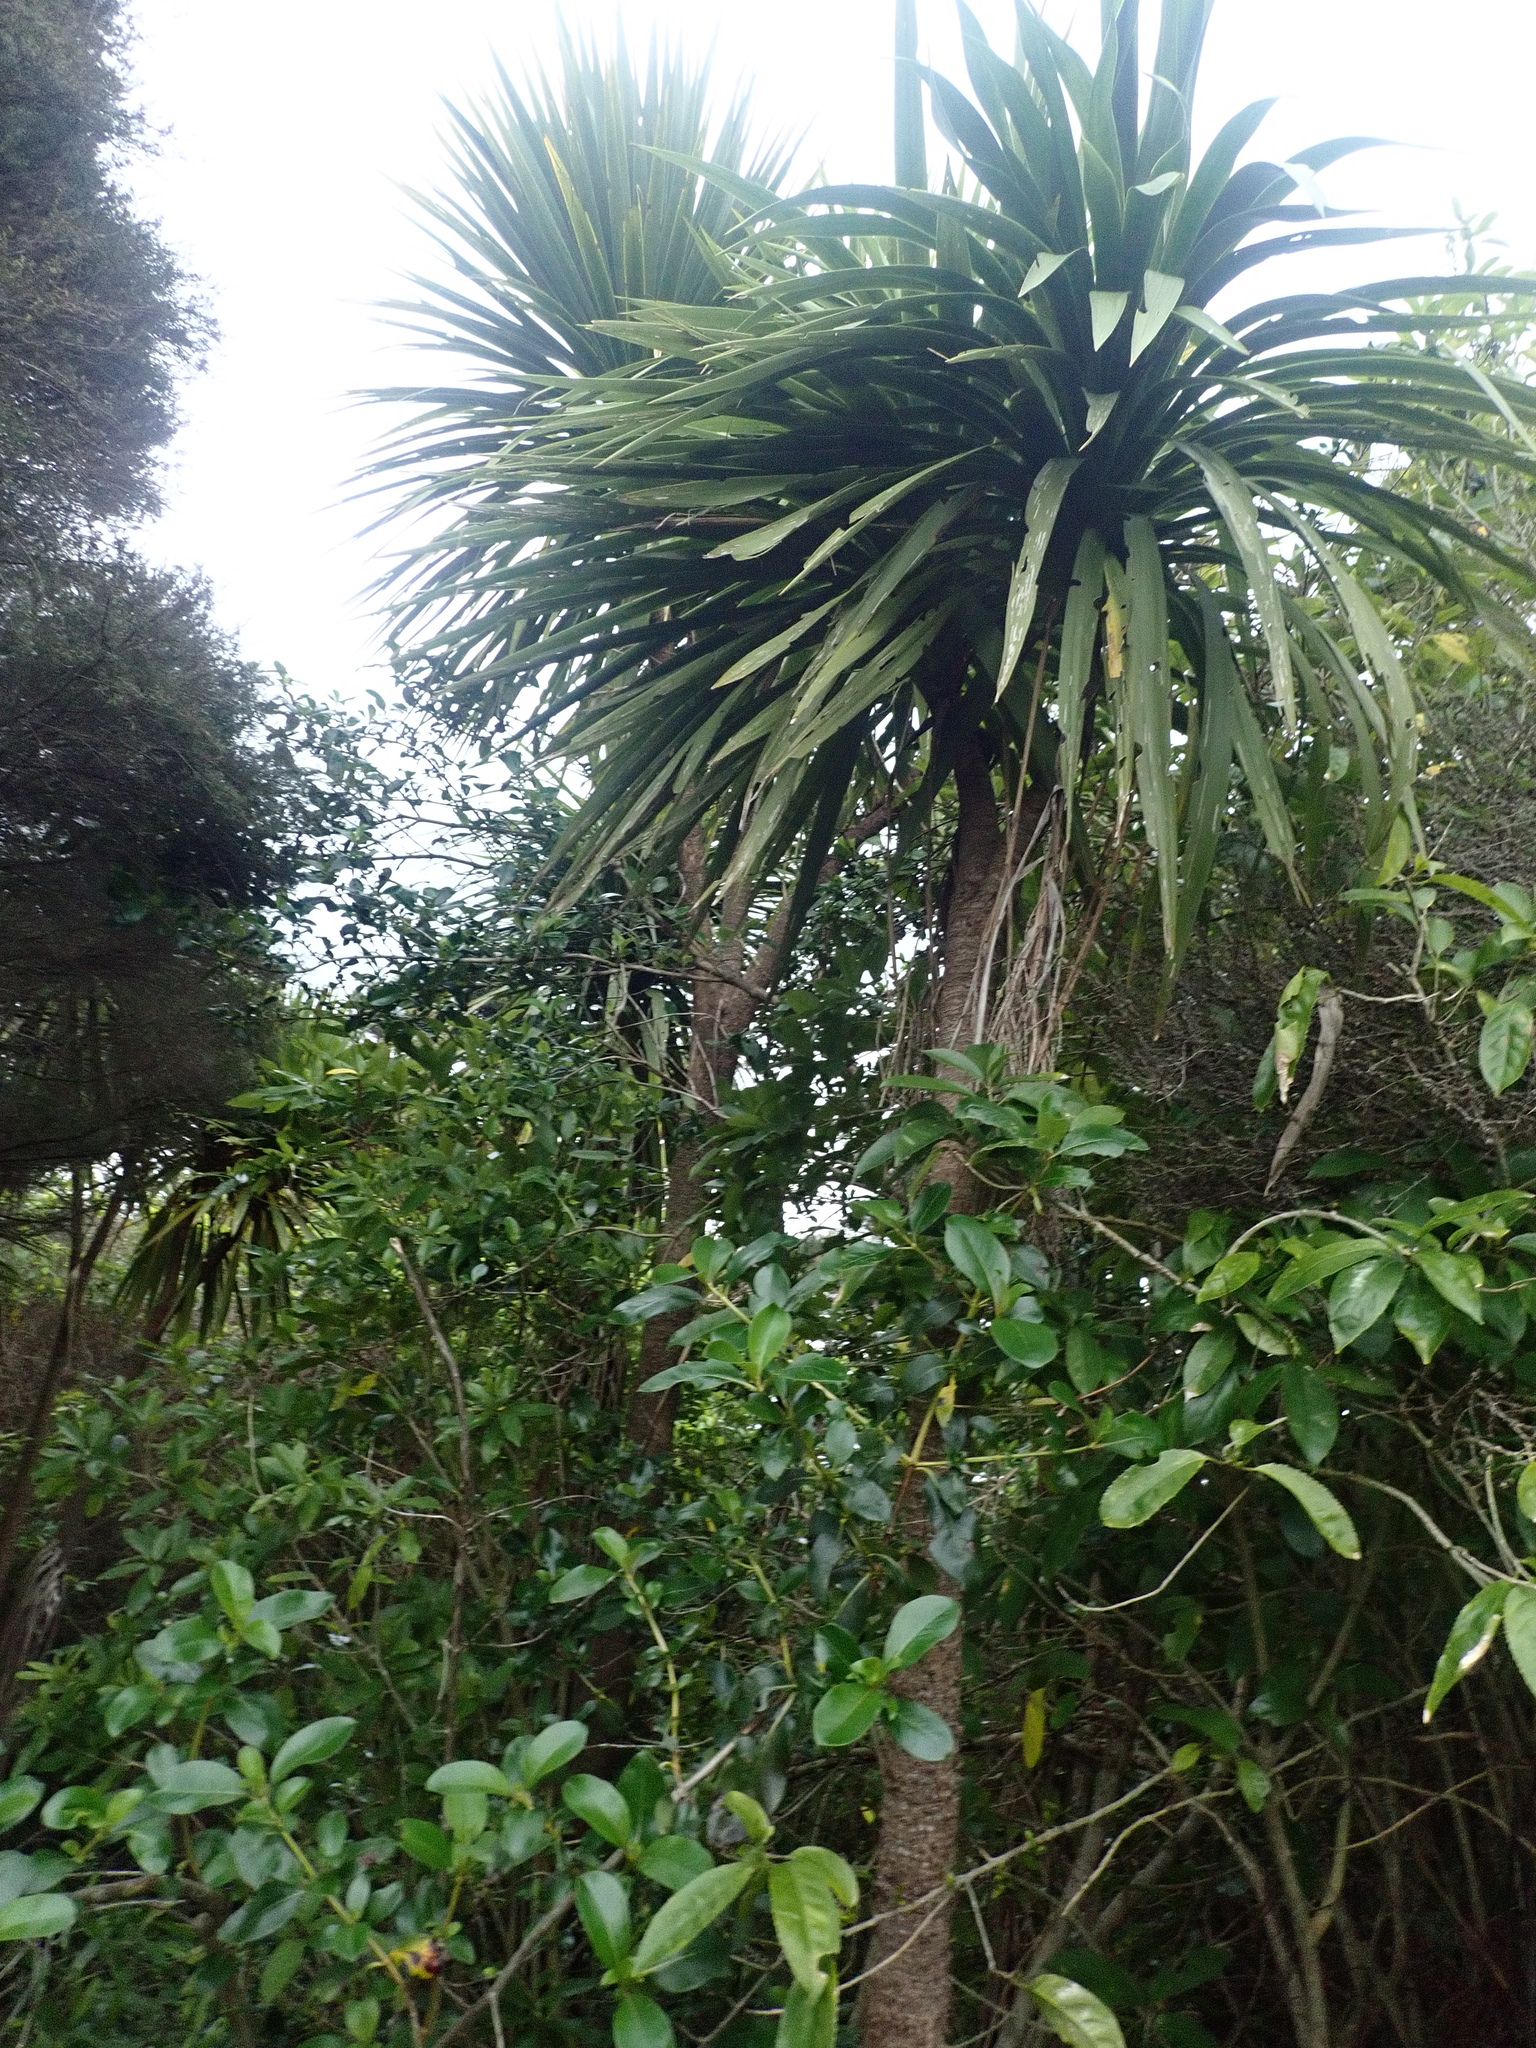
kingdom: Plantae
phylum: Tracheophyta
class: Liliopsida
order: Asparagales
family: Asparagaceae
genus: Cordyline
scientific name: Cordyline australis
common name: Cabbage-palm
